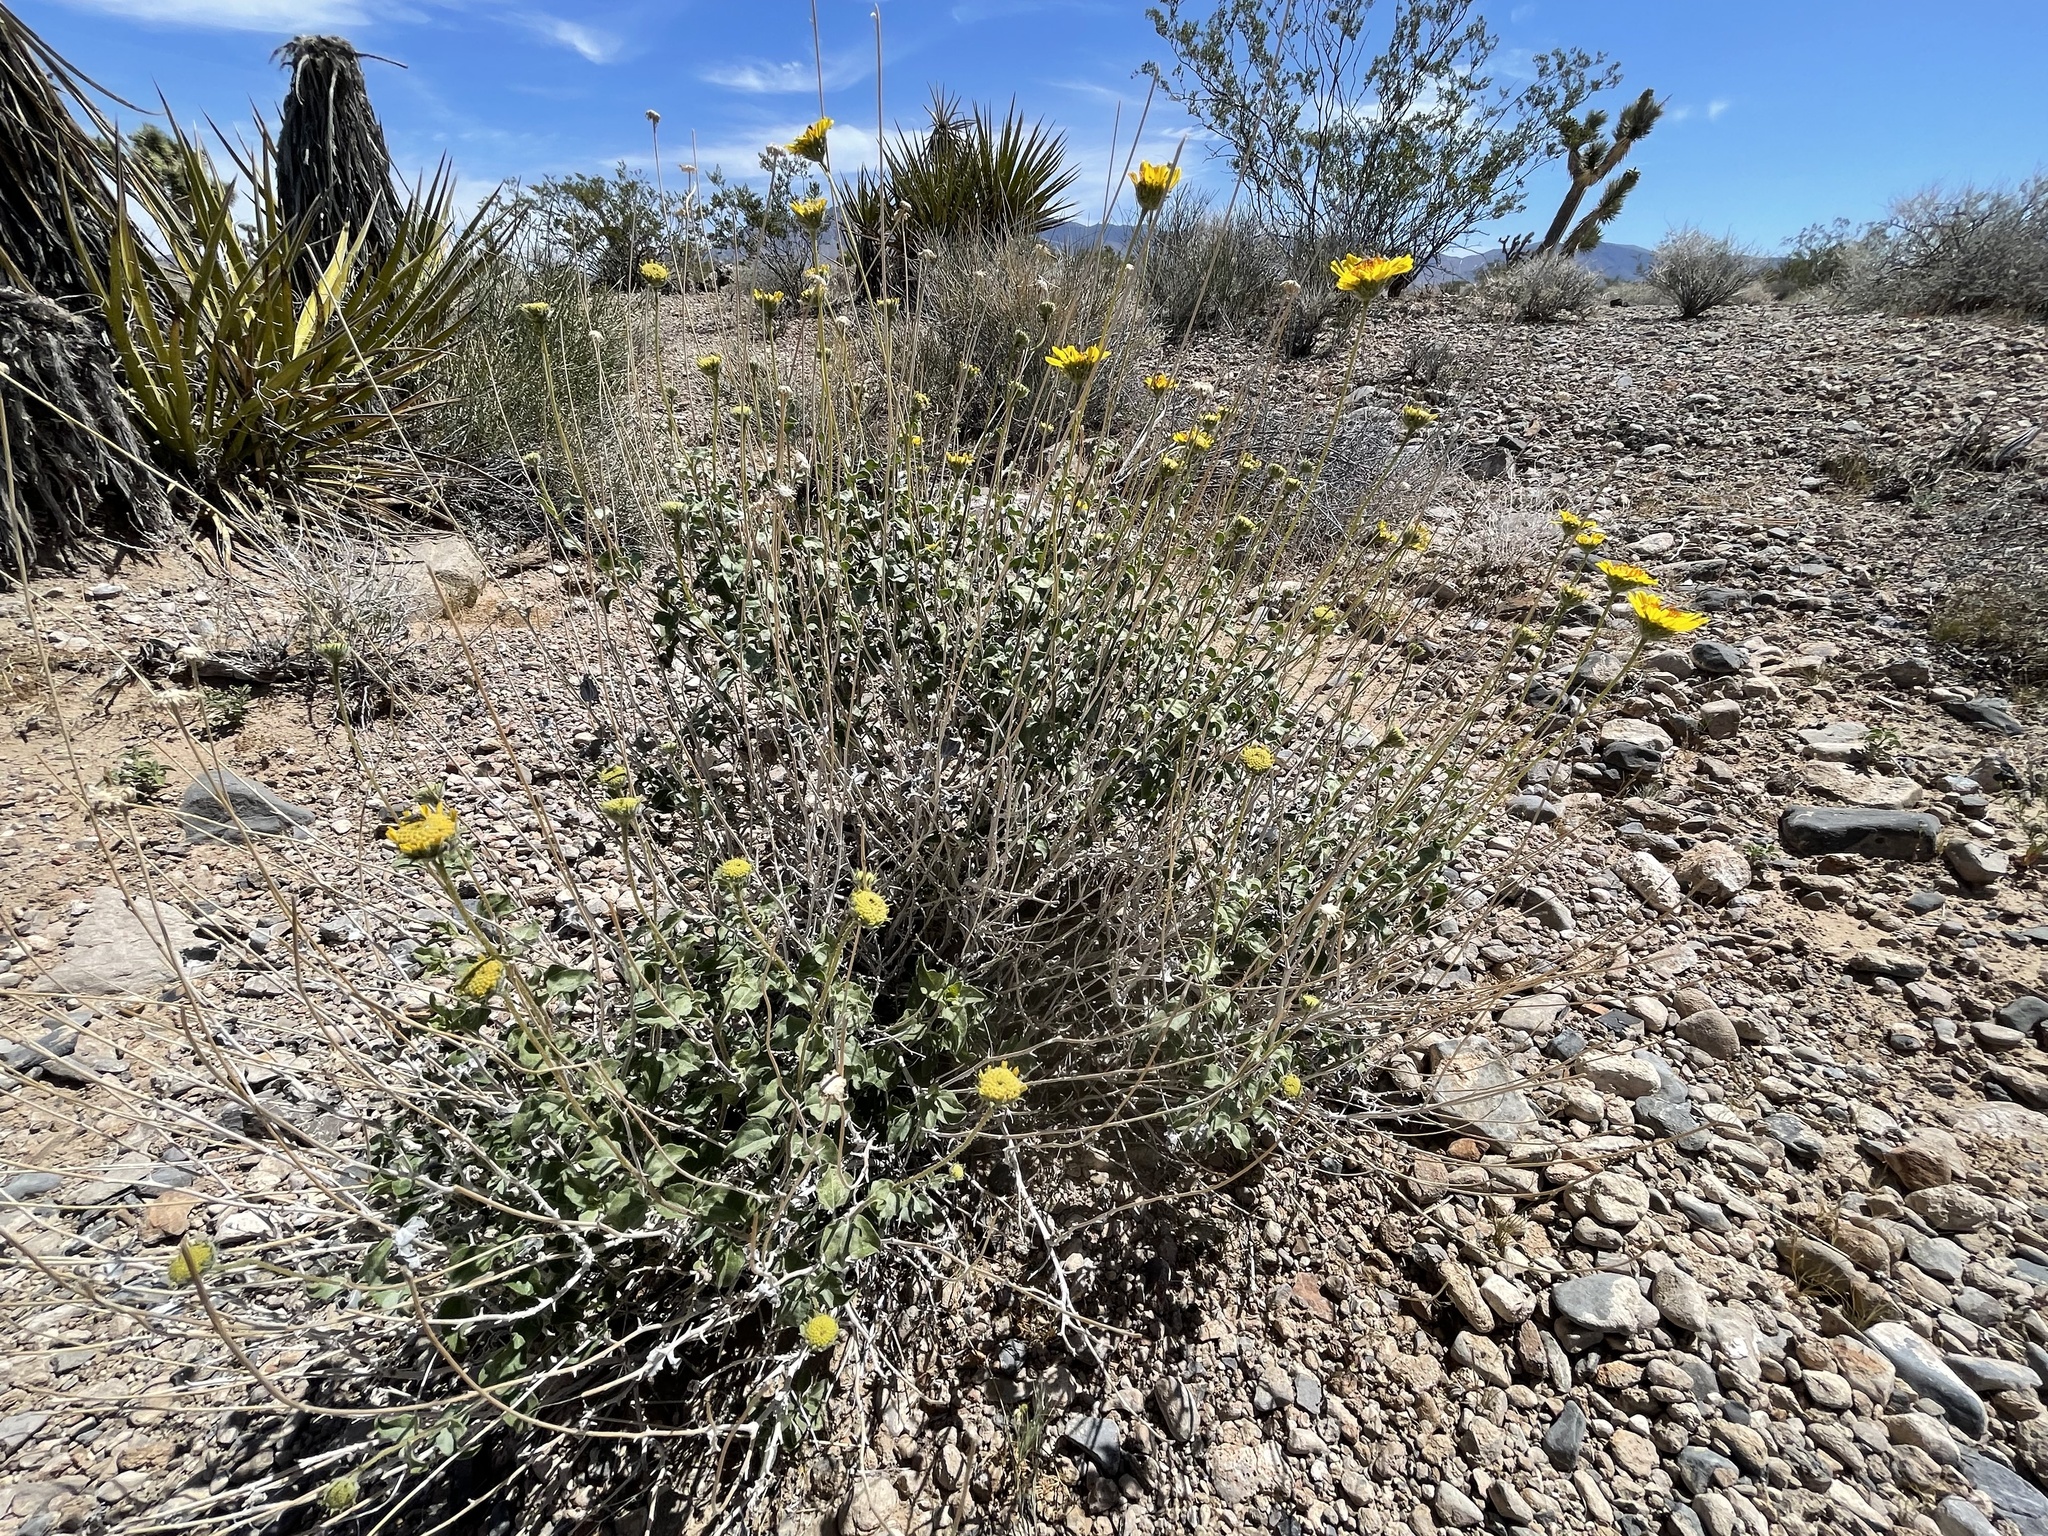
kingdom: Plantae
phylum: Tracheophyta
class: Magnoliopsida
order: Asterales
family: Asteraceae
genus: Encelia
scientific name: Encelia virginensis
